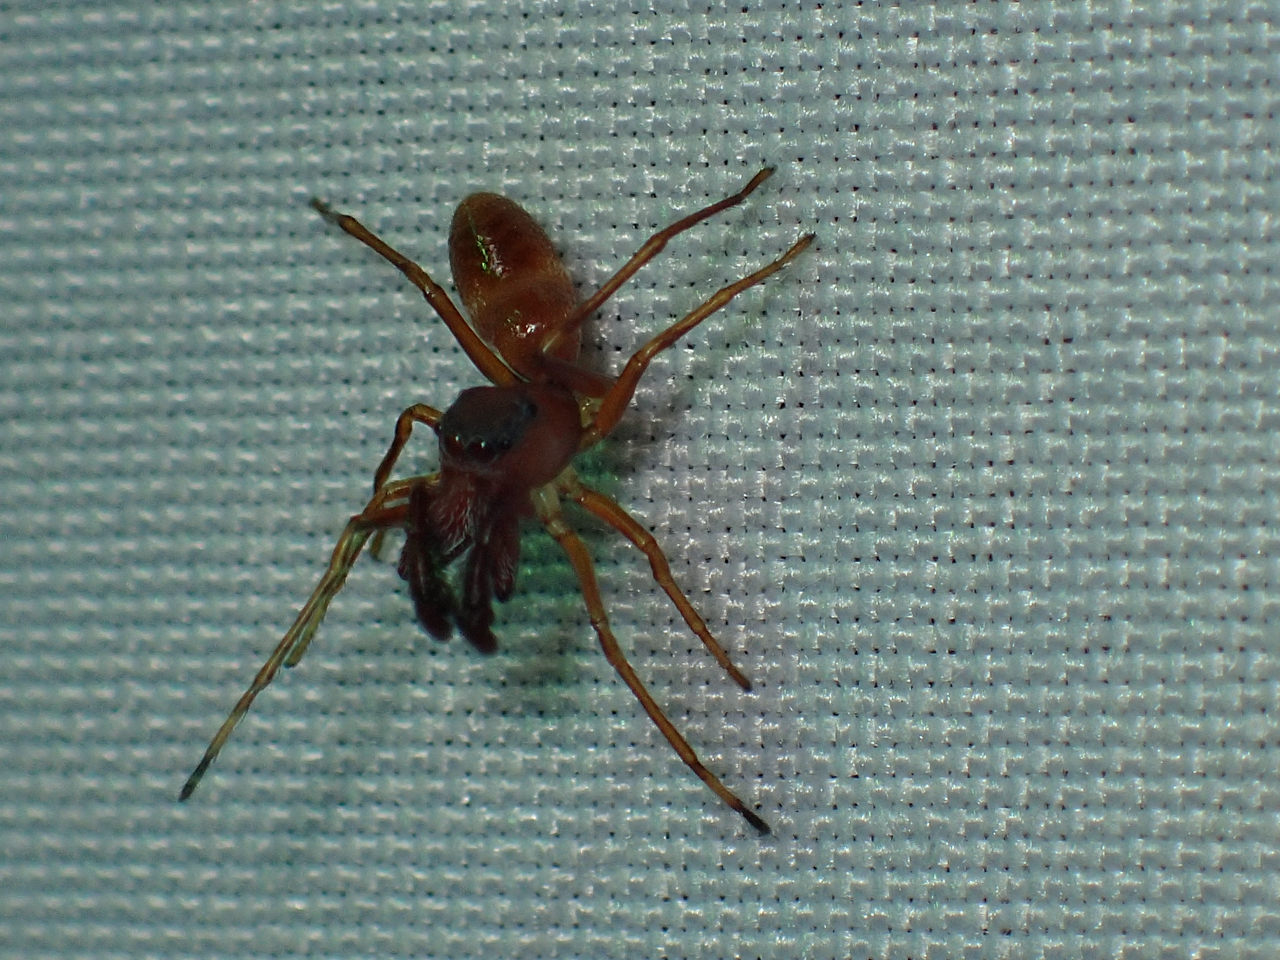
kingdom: Animalia
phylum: Arthropoda
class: Arachnida
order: Araneae
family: Salticidae
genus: Sarinda
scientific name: Sarinda hentzi
